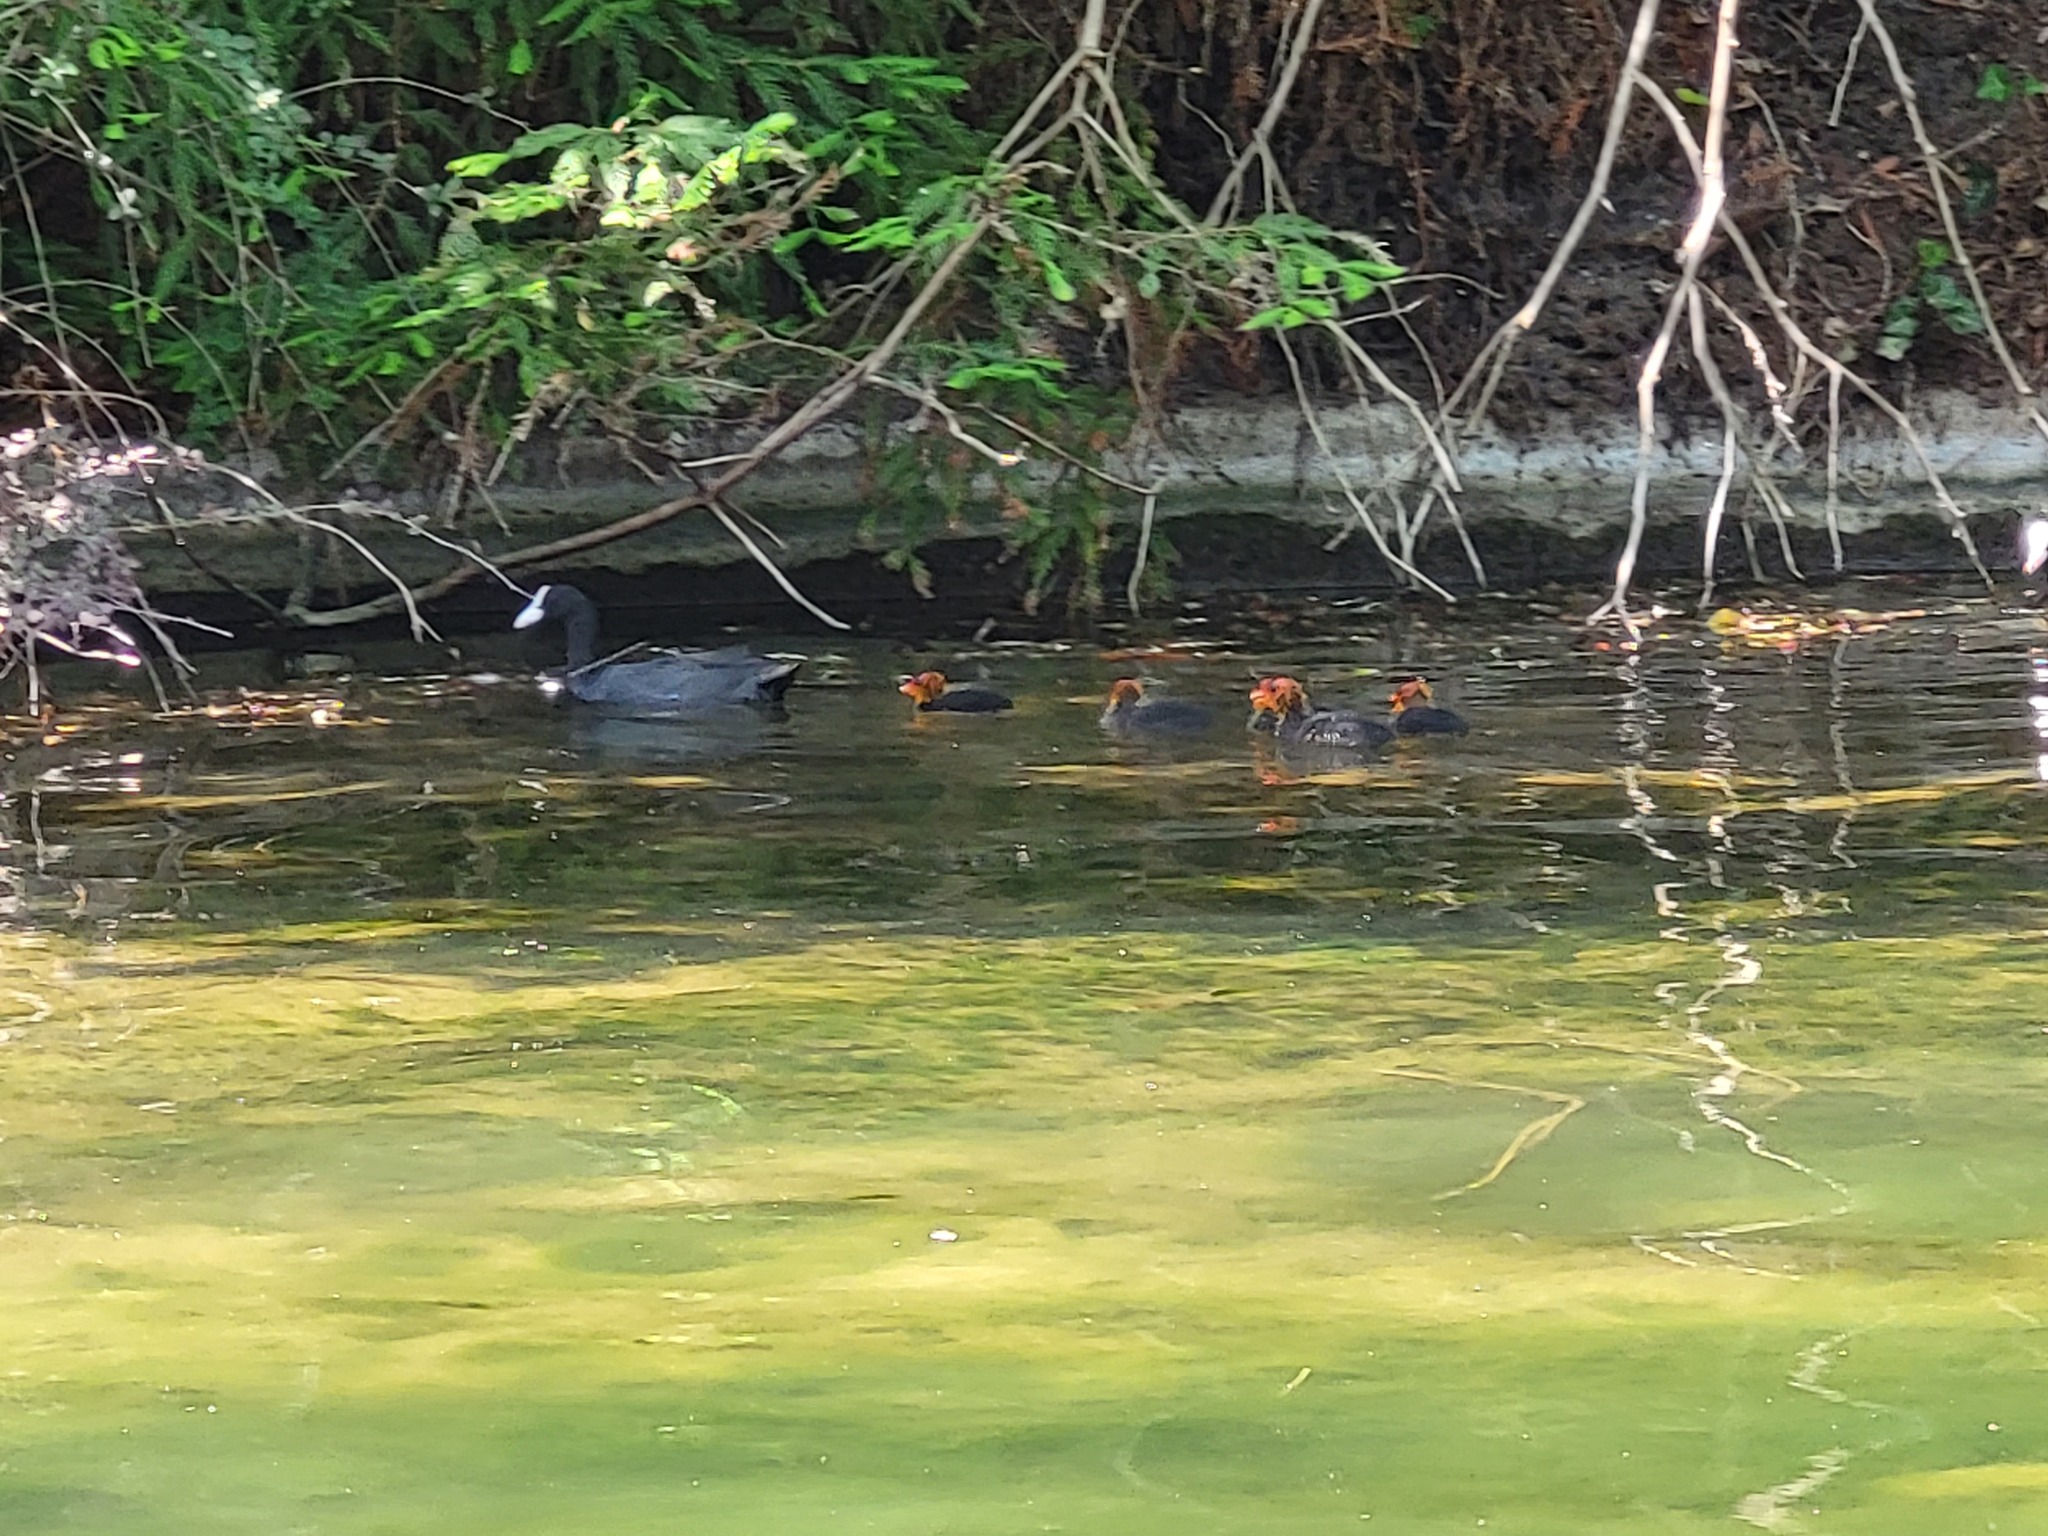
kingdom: Animalia
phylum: Chordata
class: Aves
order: Gruiformes
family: Rallidae
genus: Fulica
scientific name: Fulica atra
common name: Eurasian coot
